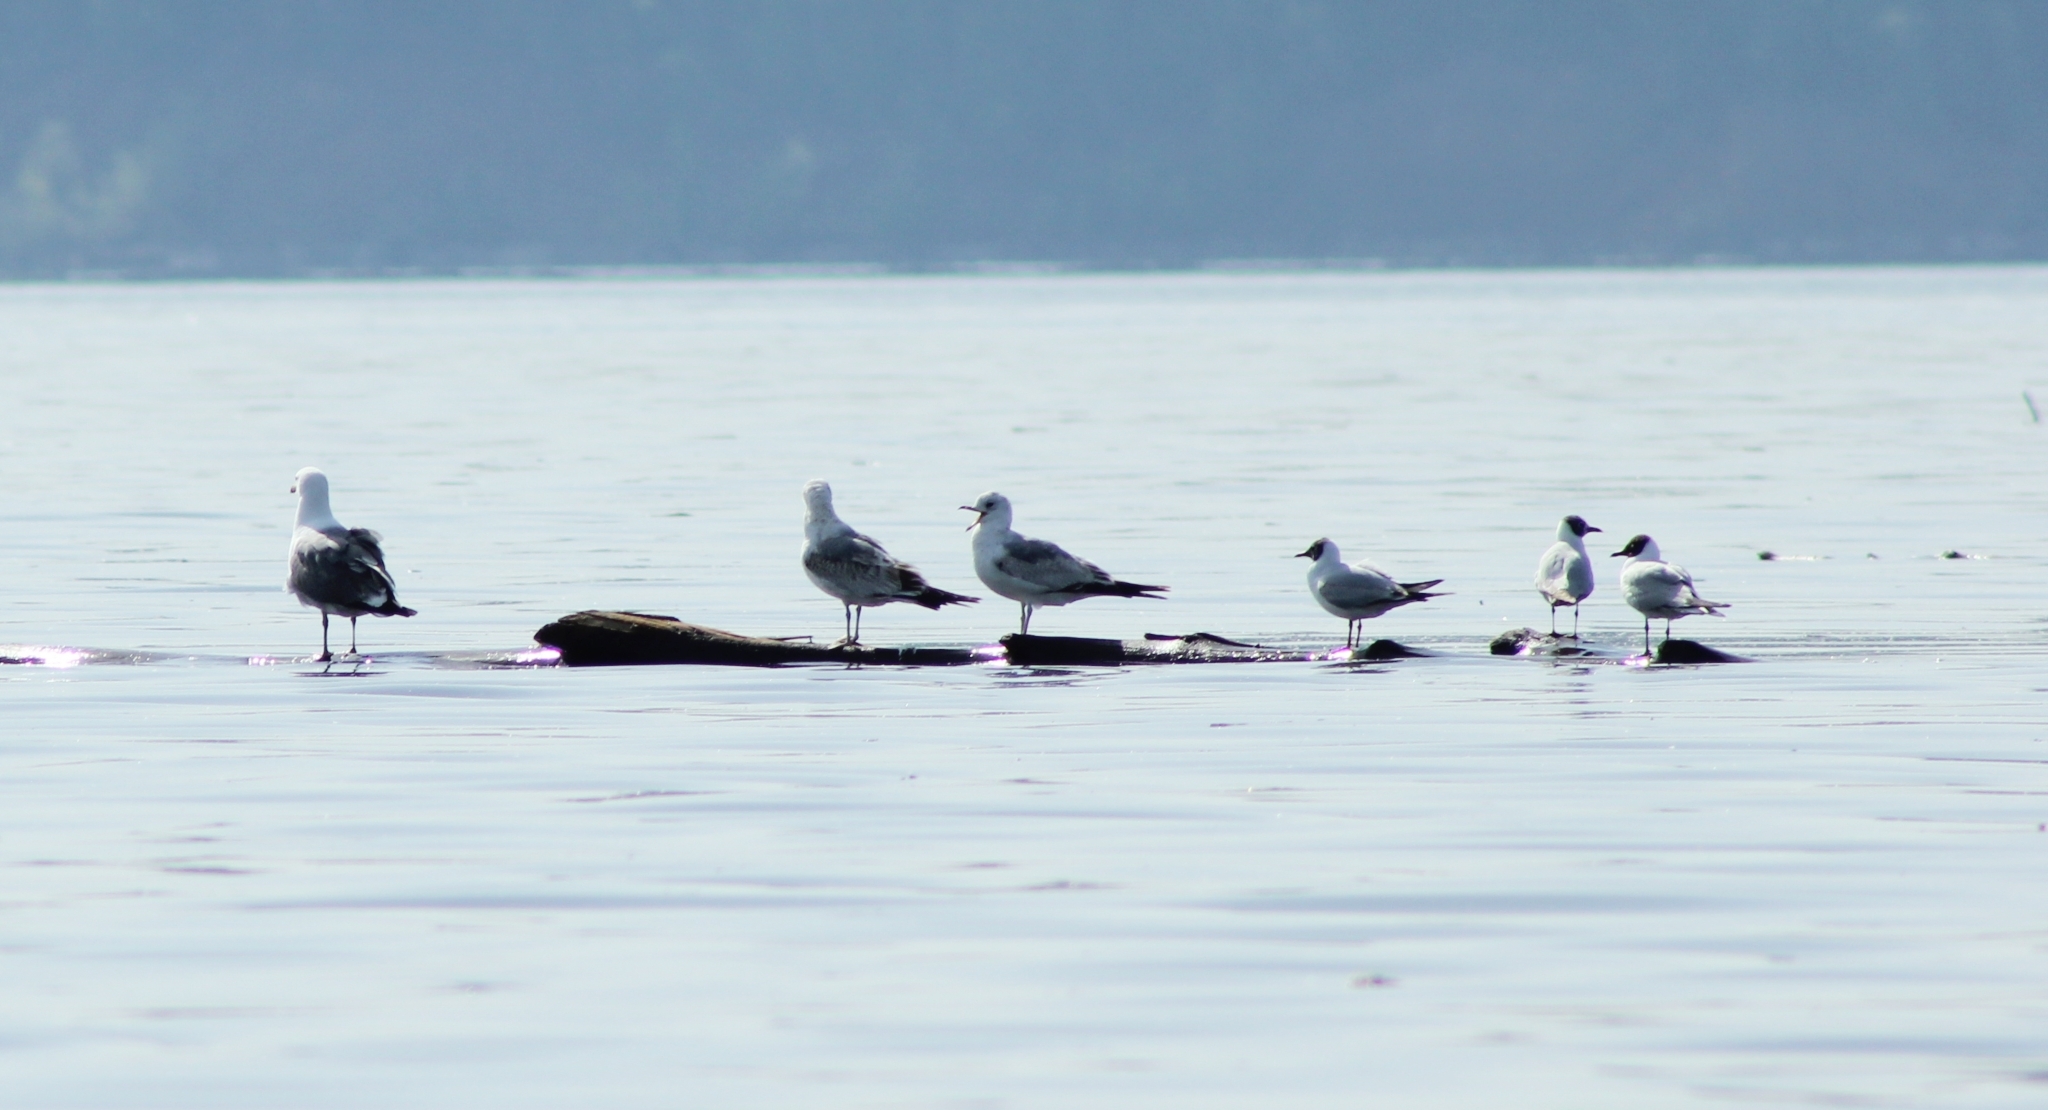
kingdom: Animalia
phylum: Chordata
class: Aves
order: Charadriiformes
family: Laridae
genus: Larus
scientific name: Larus canus
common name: Mew gull
